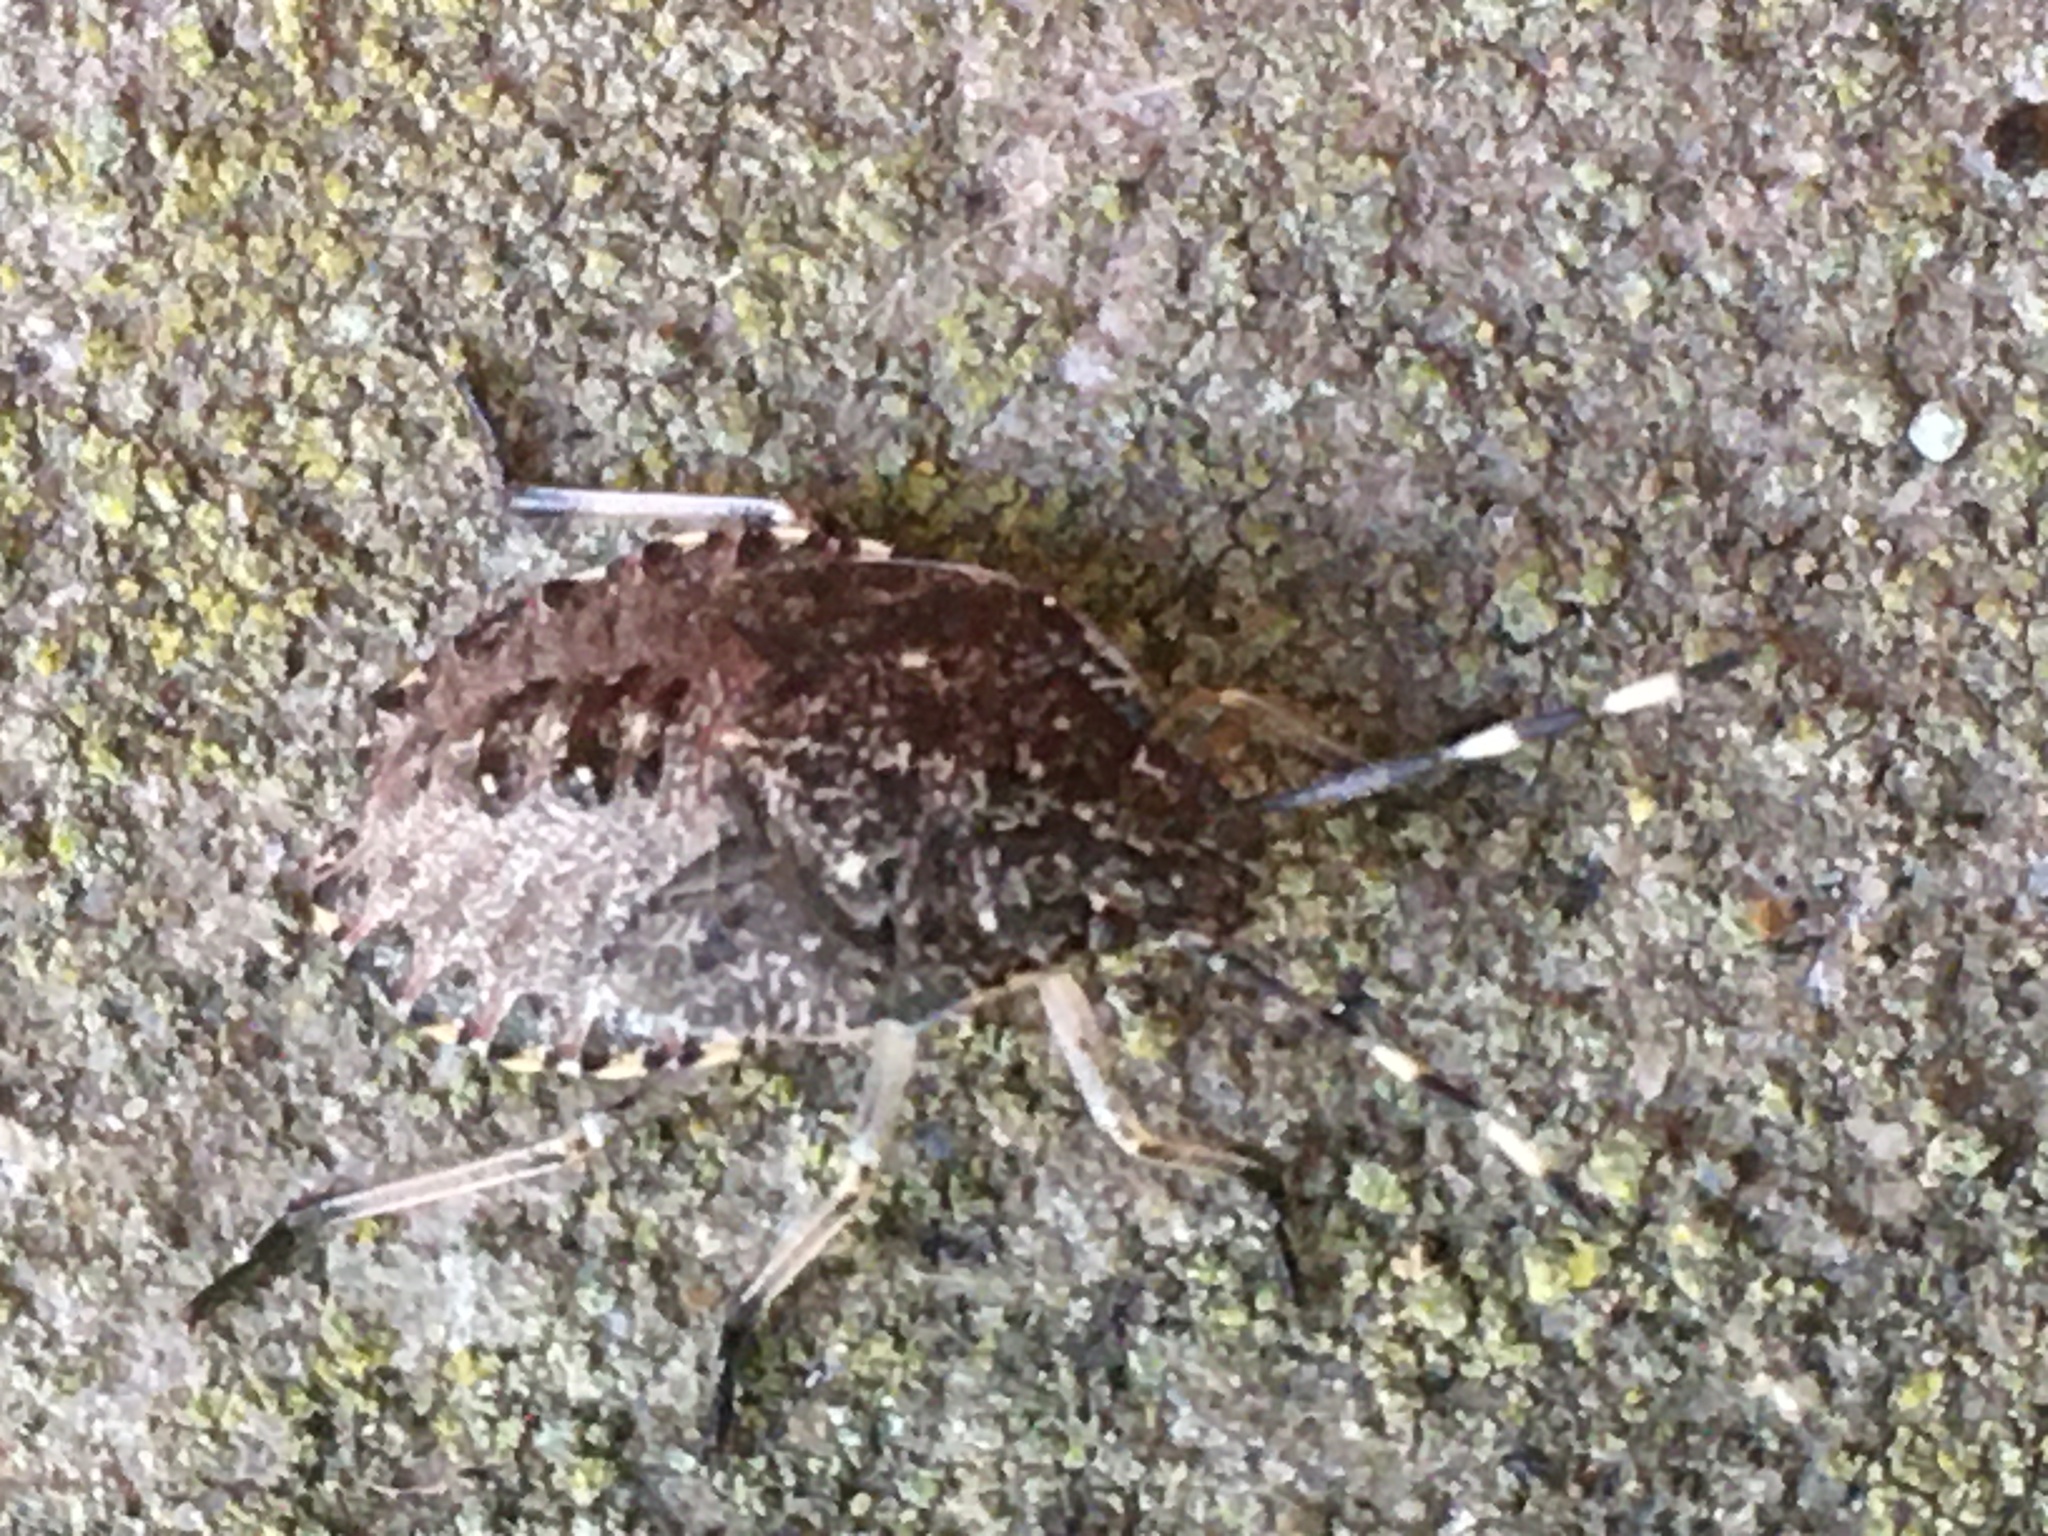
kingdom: Animalia
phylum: Arthropoda
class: Insecta
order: Hemiptera
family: Pentatomidae
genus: Rhaphigaster
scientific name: Rhaphigaster nebulosa
